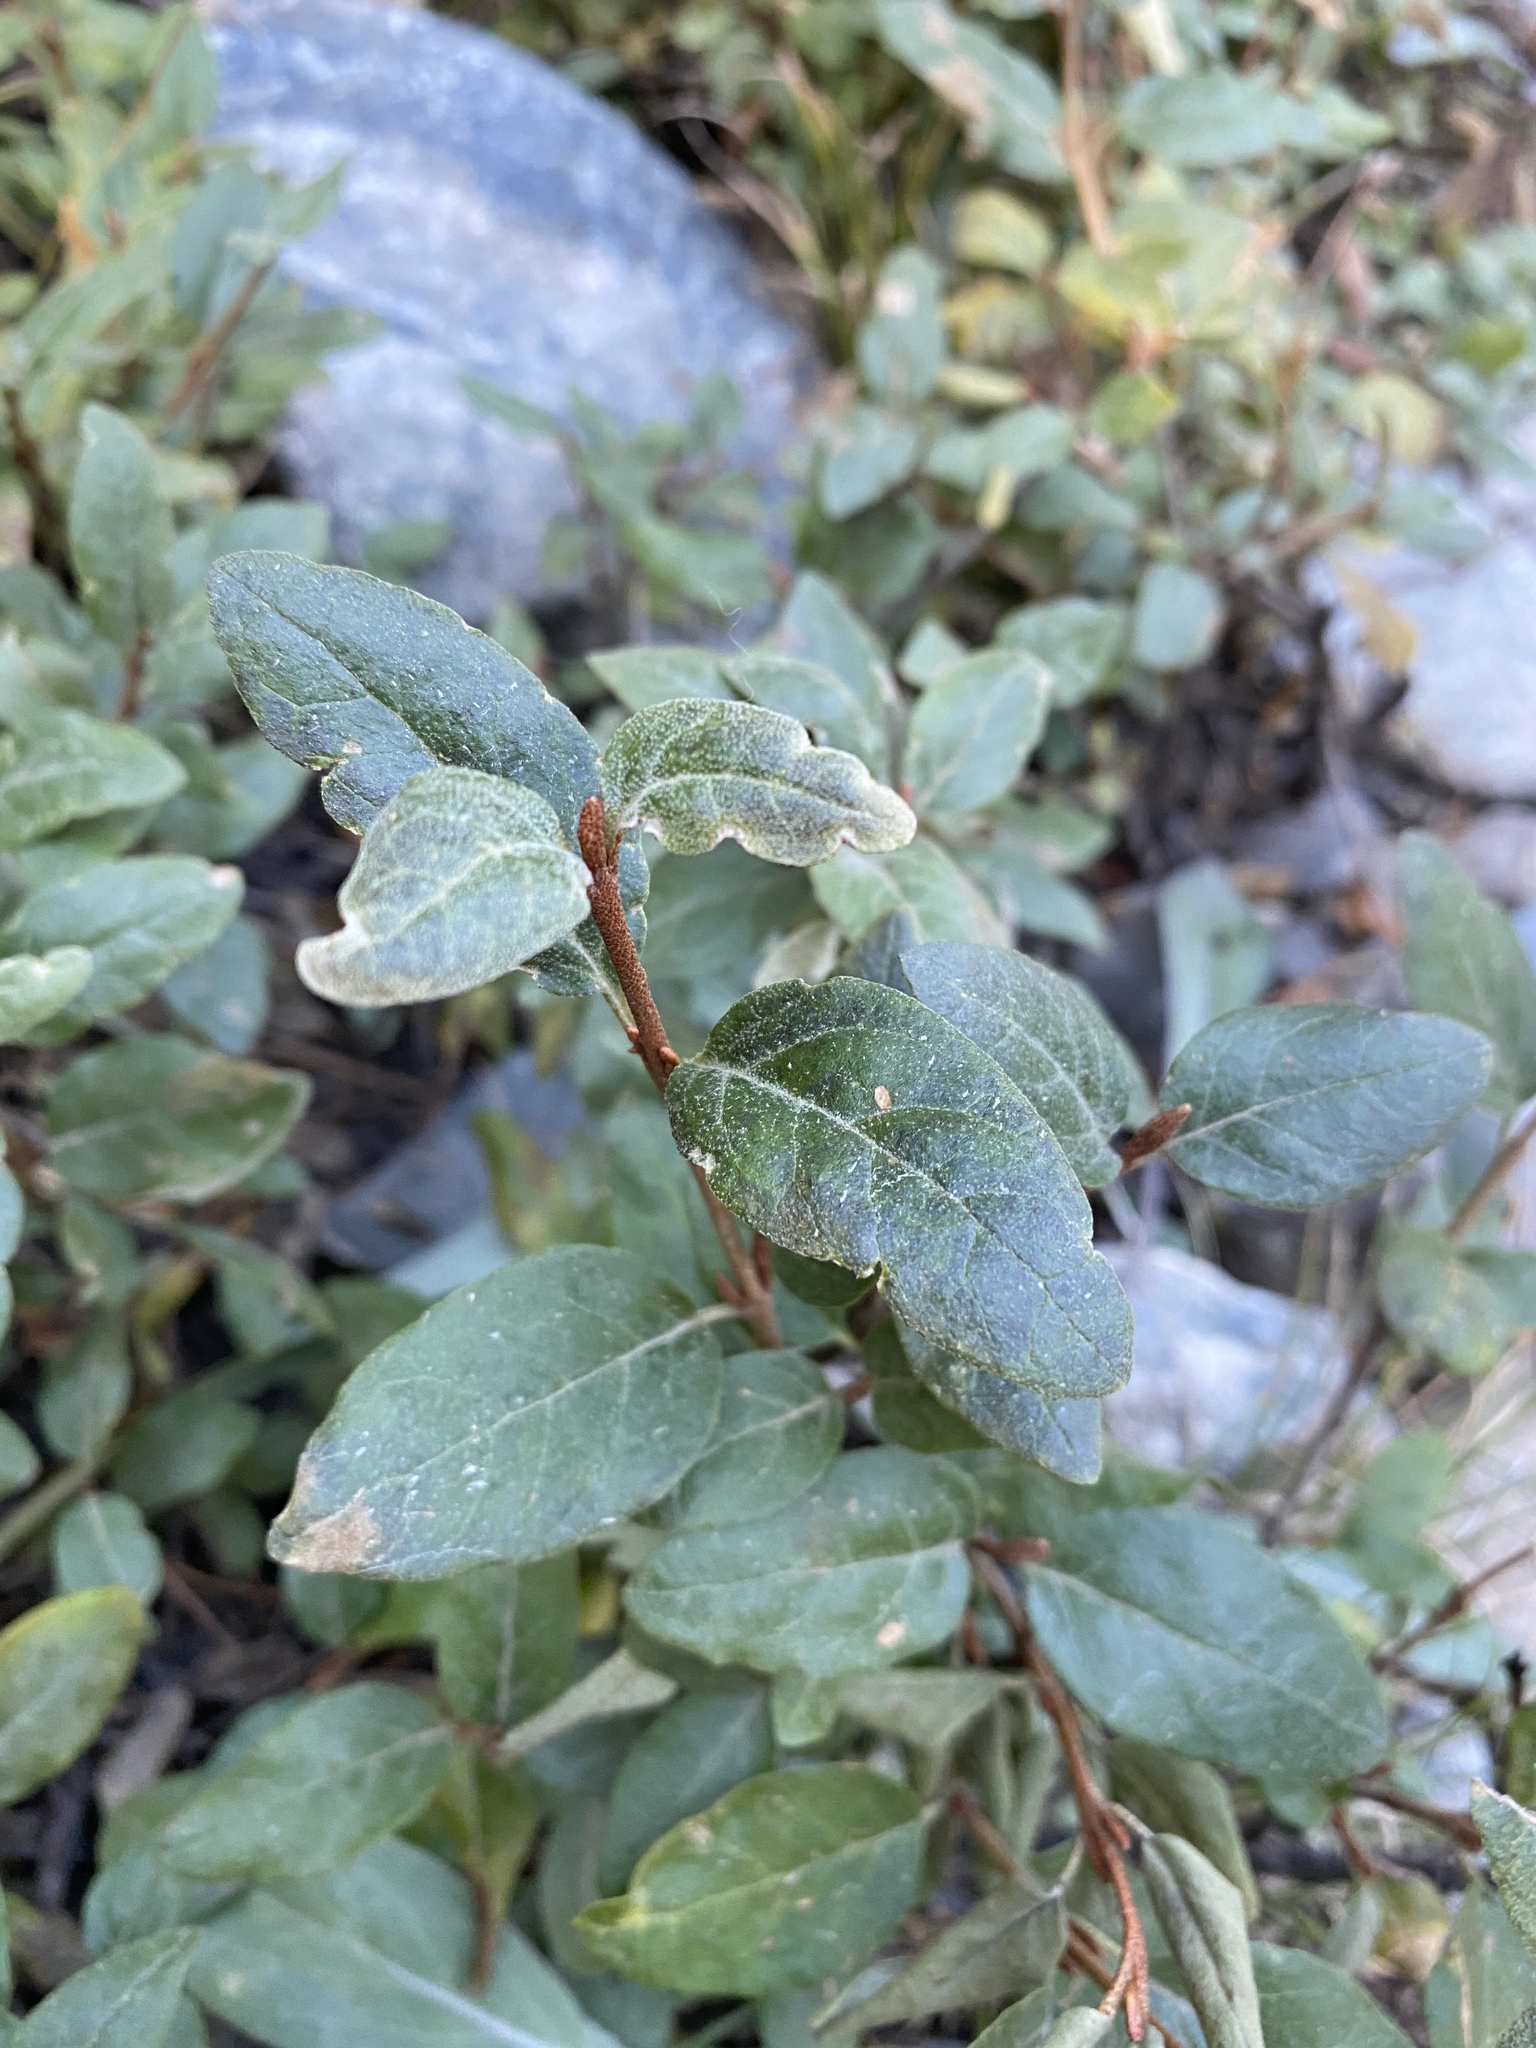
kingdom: Plantae
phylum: Tracheophyta
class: Magnoliopsida
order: Rosales
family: Elaeagnaceae
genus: Shepherdia
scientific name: Shepherdia canadensis
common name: Soapberry
